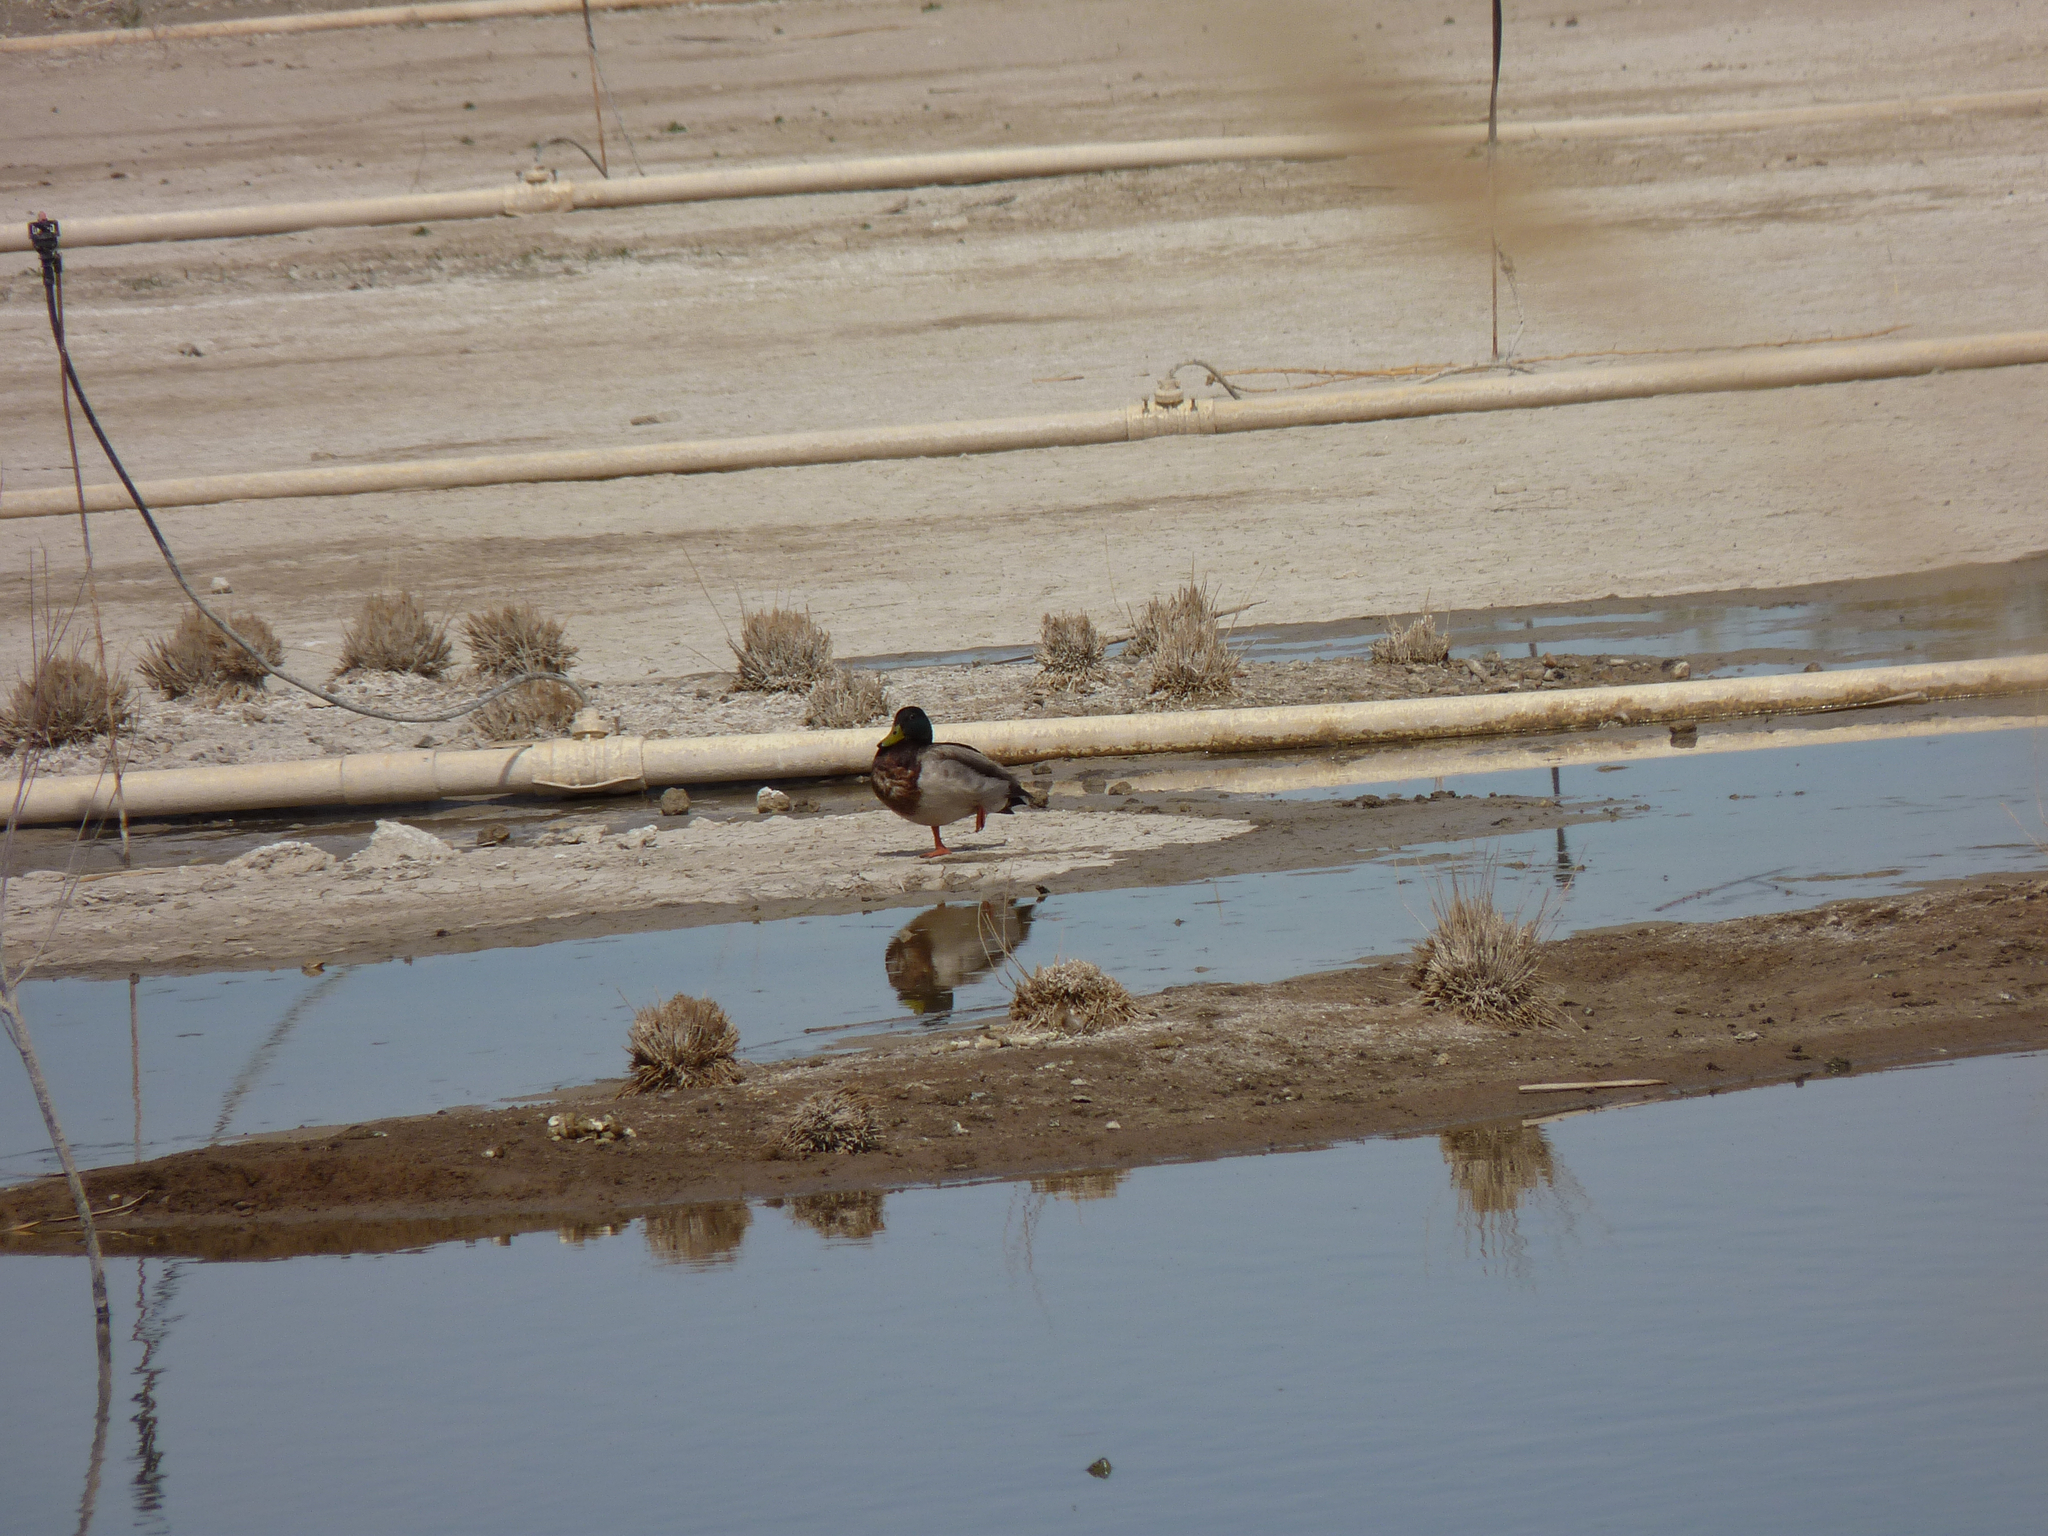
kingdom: Animalia
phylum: Chordata
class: Aves
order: Anseriformes
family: Anatidae
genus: Anas
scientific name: Anas platyrhynchos
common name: Mallard
